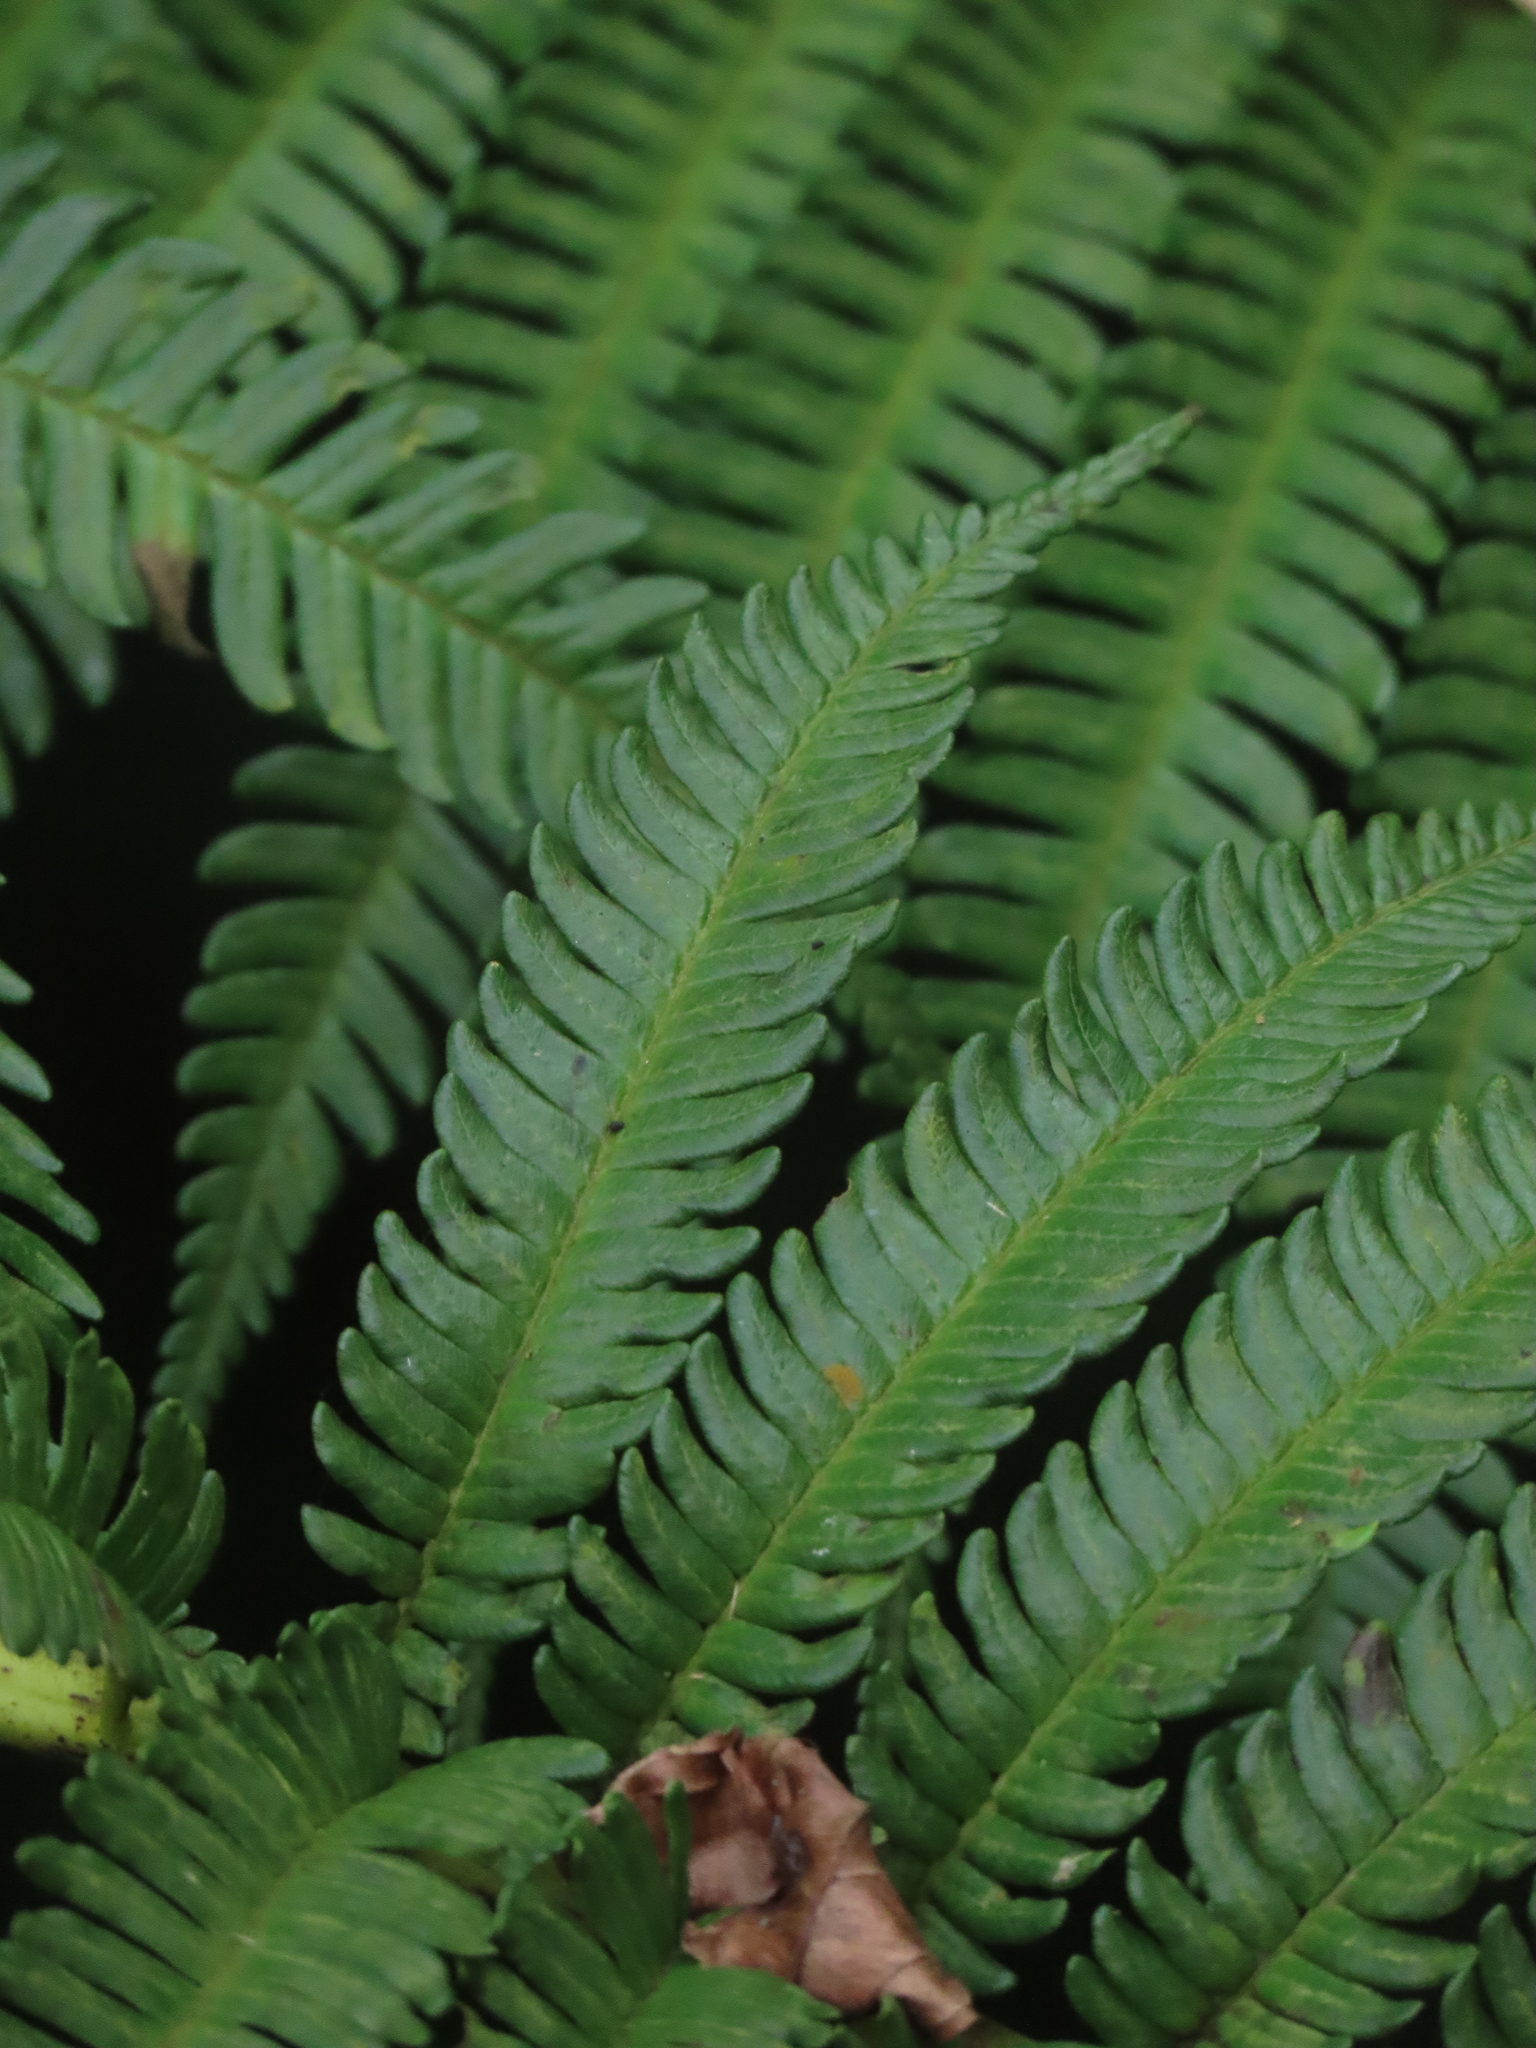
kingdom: Plantae
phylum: Tracheophyta
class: Polypodiopsida
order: Cyatheales
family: Cyatheaceae
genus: Alsophila
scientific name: Alsophila lepifera
